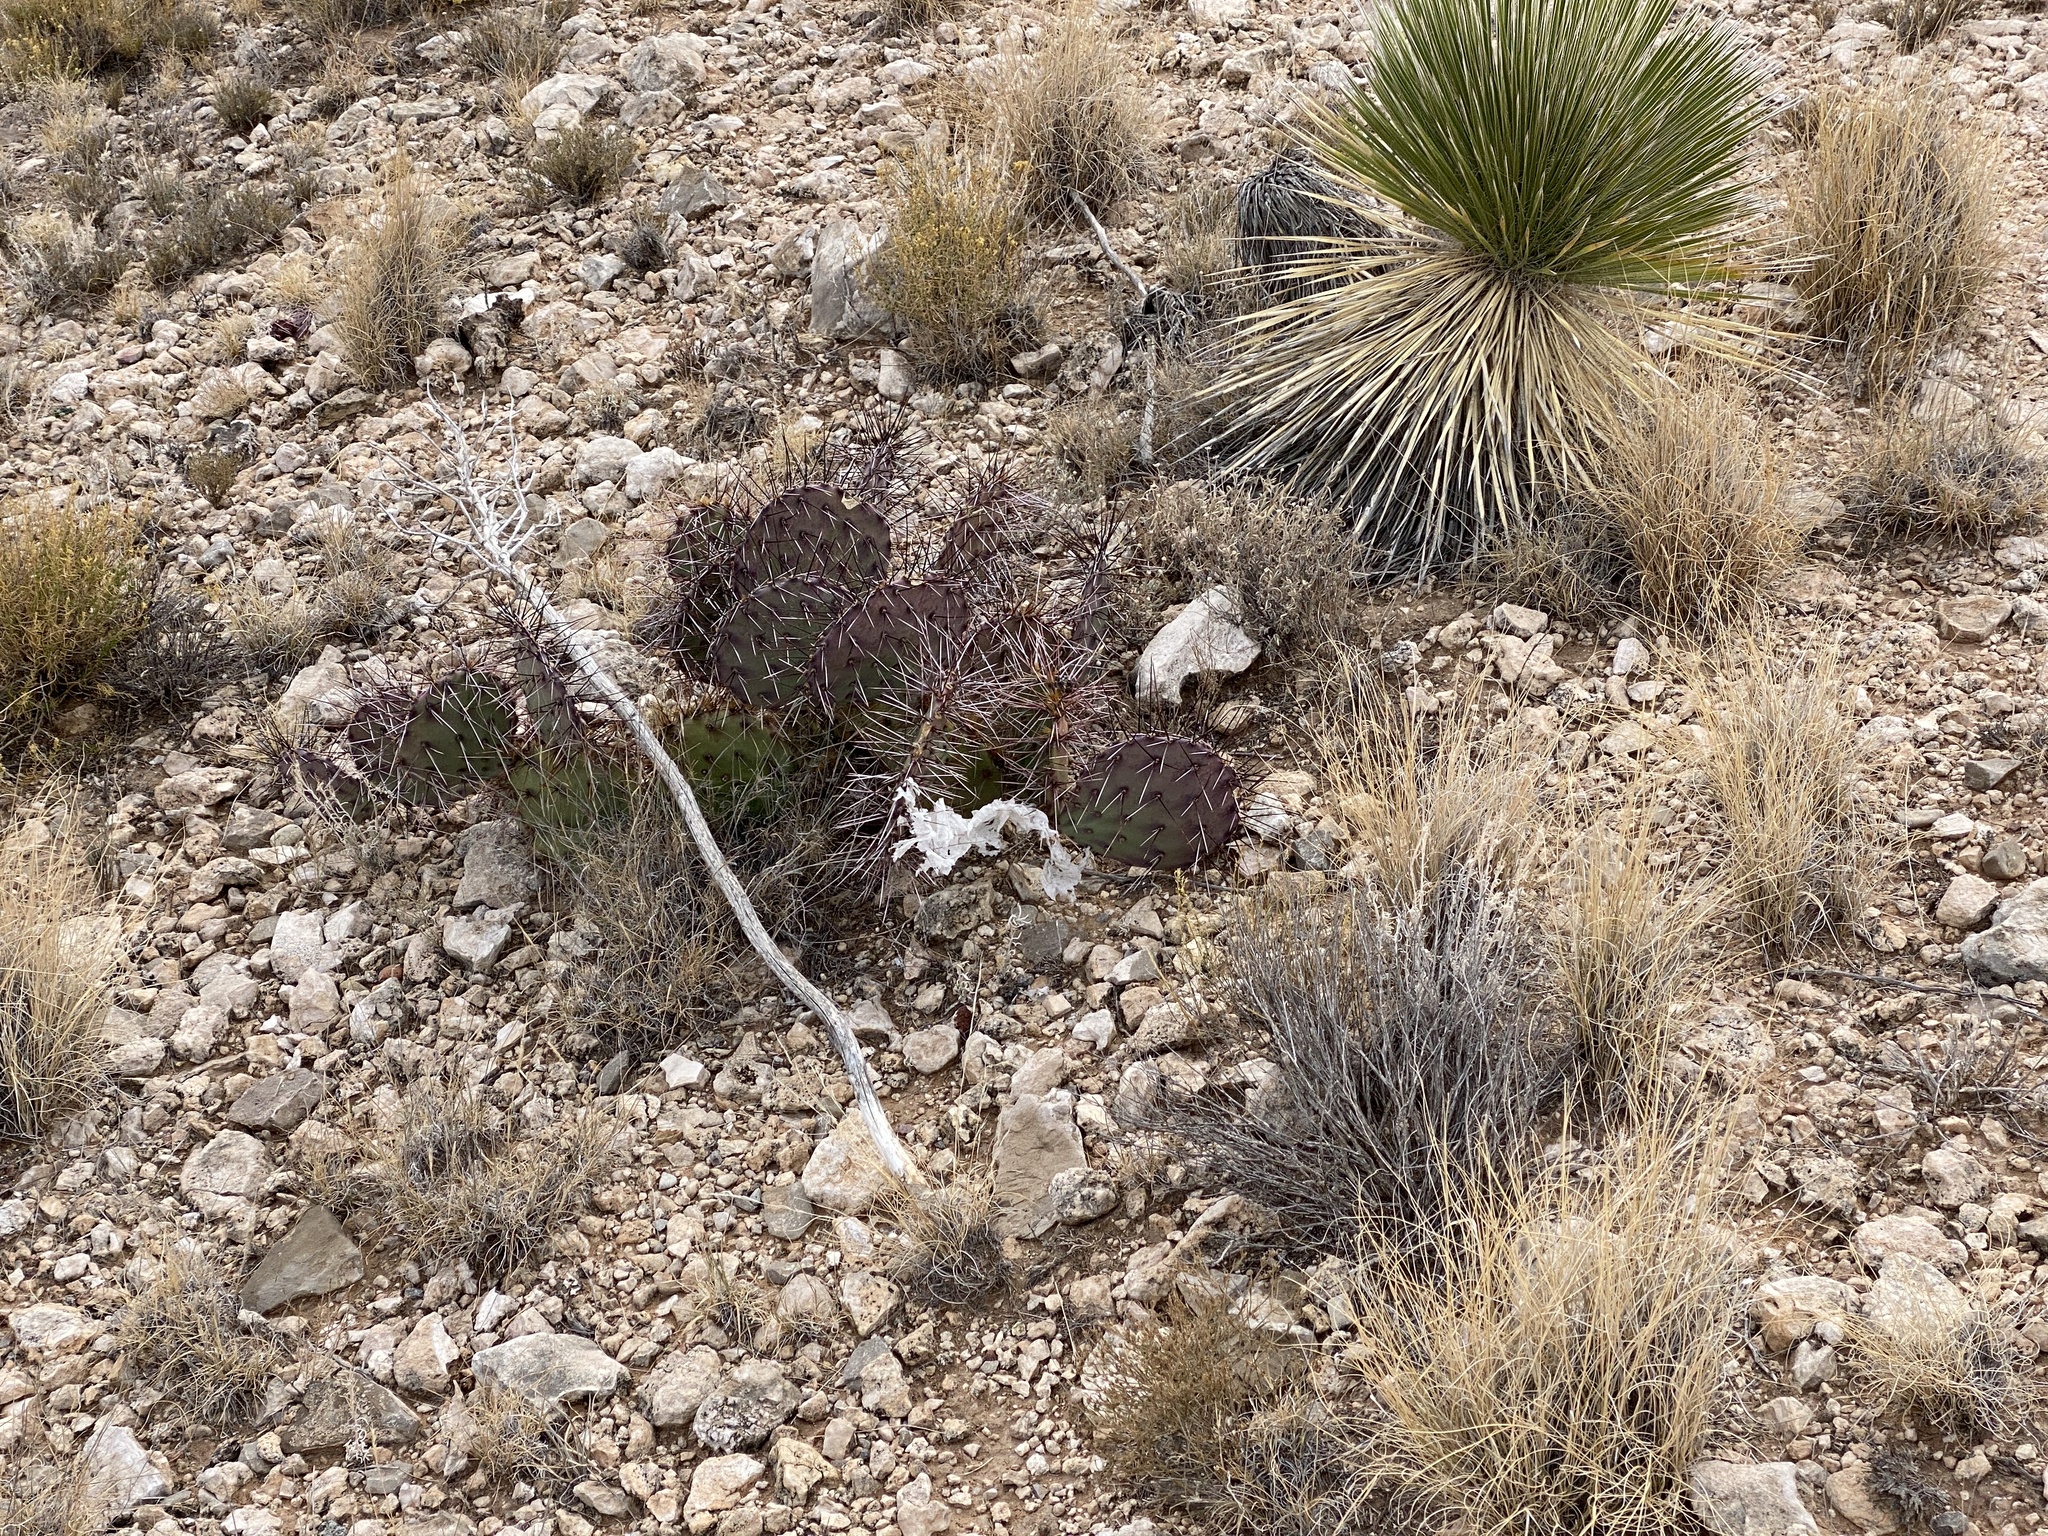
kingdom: Plantae
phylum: Tracheophyta
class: Magnoliopsida
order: Caryophyllales
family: Cactaceae
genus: Opuntia
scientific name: Opuntia macrocentra
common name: Purple prickly-pear
